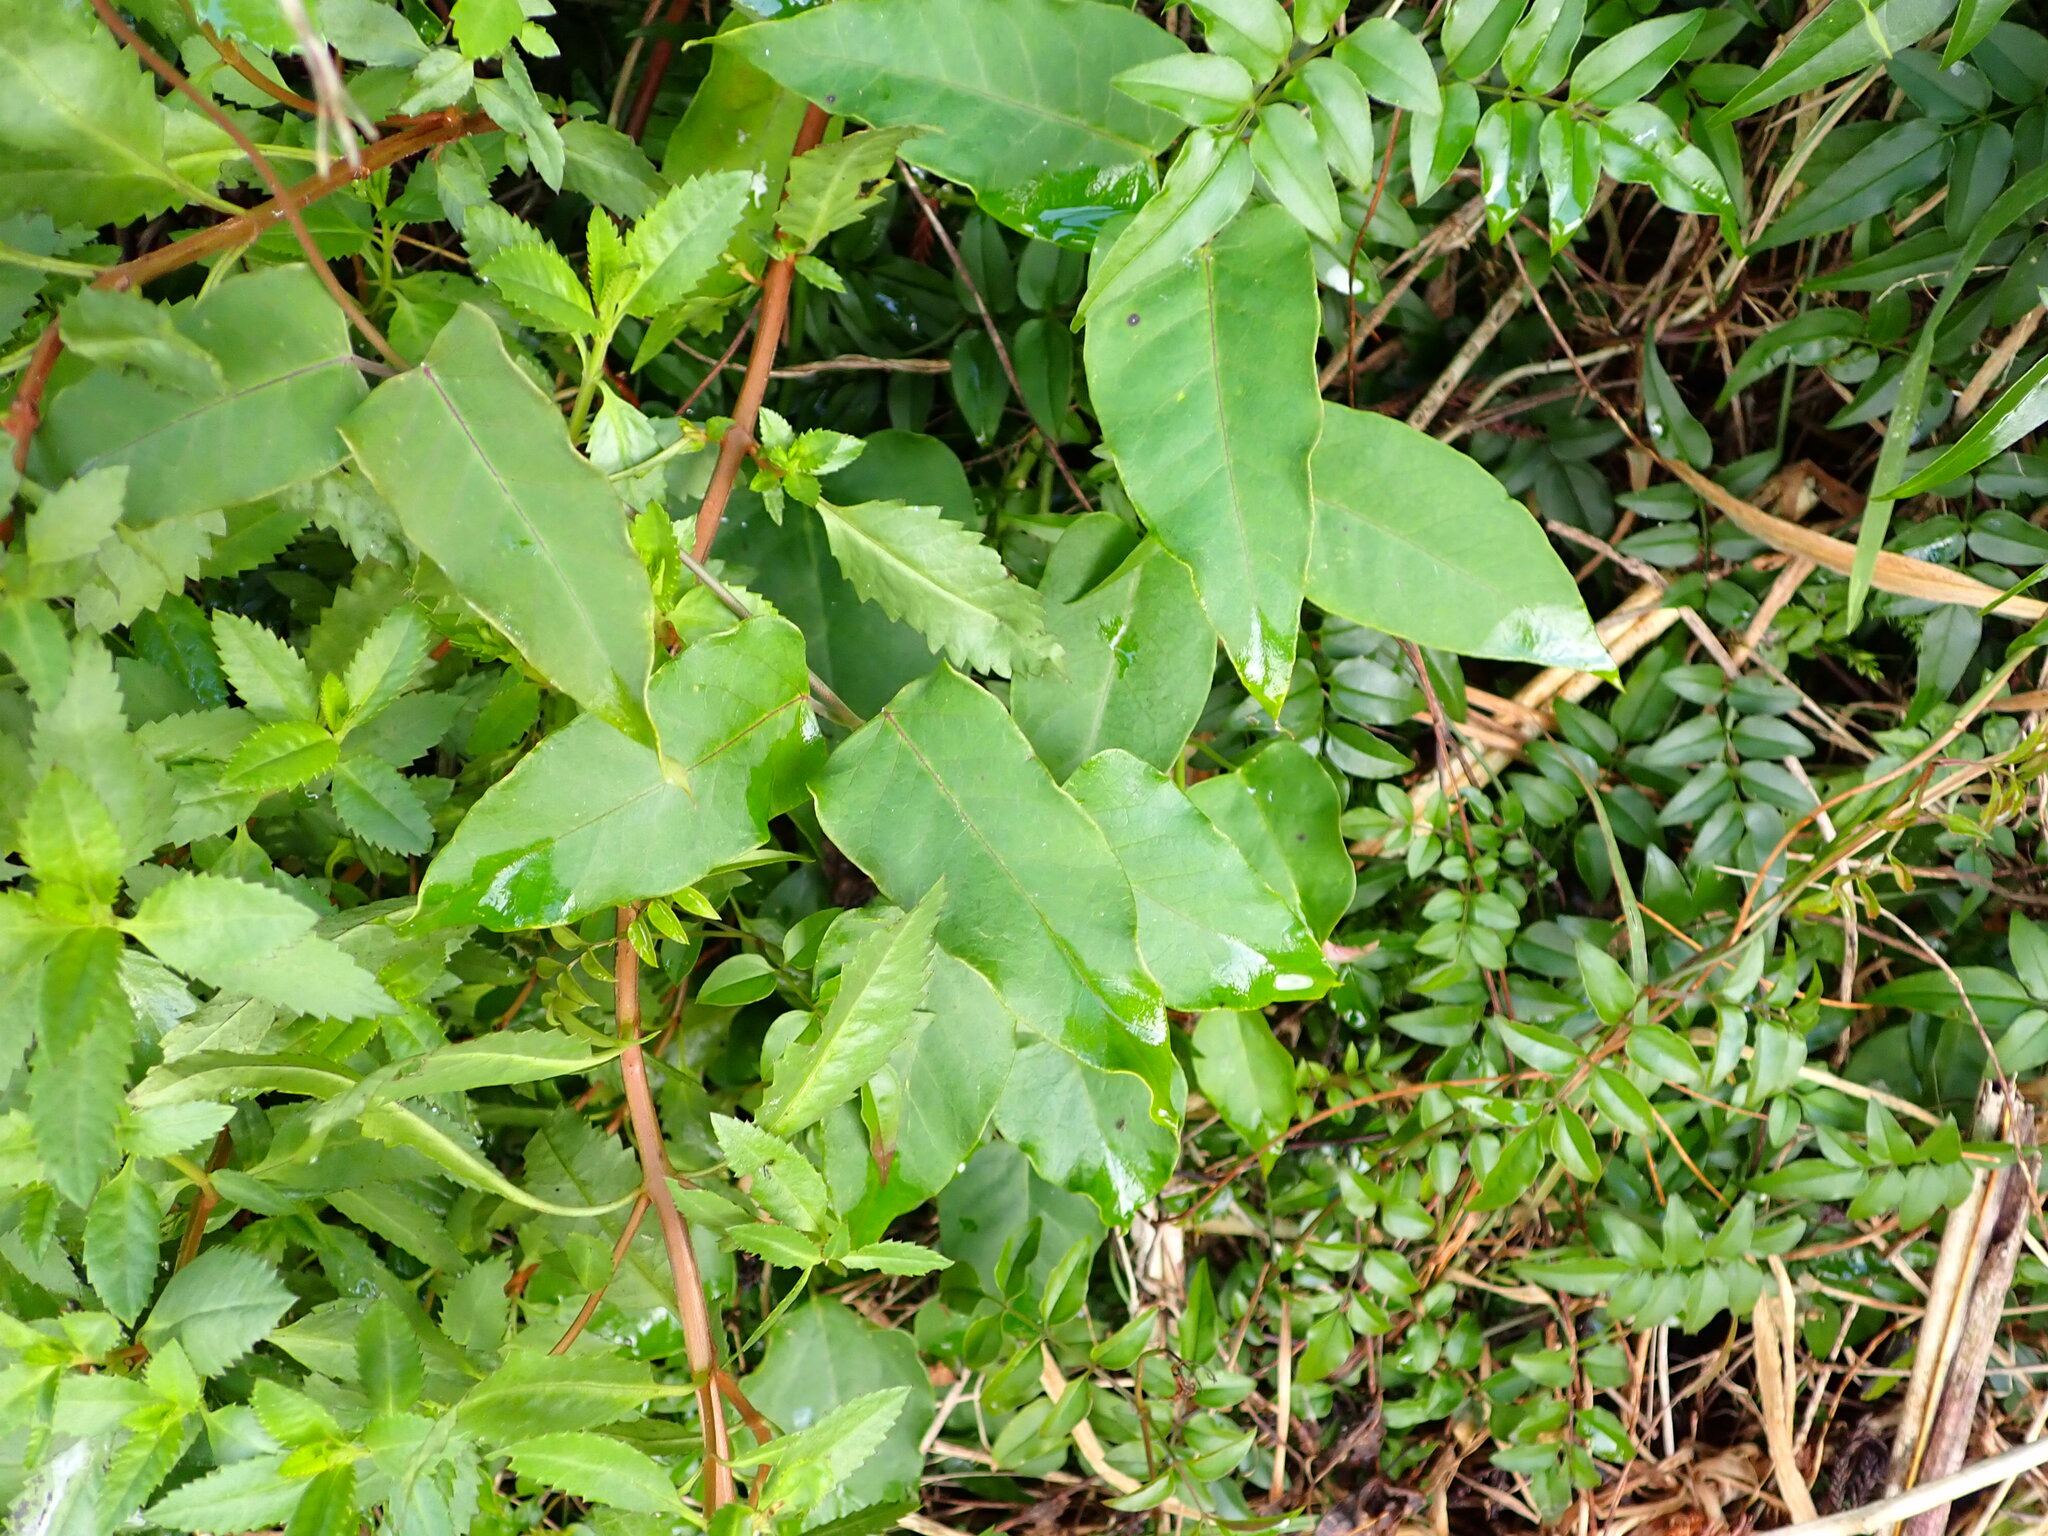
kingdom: Plantae
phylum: Tracheophyta
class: Magnoliopsida
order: Gentianales
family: Apocynaceae
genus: Araujia
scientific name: Araujia sericifera
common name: White bladderflower
